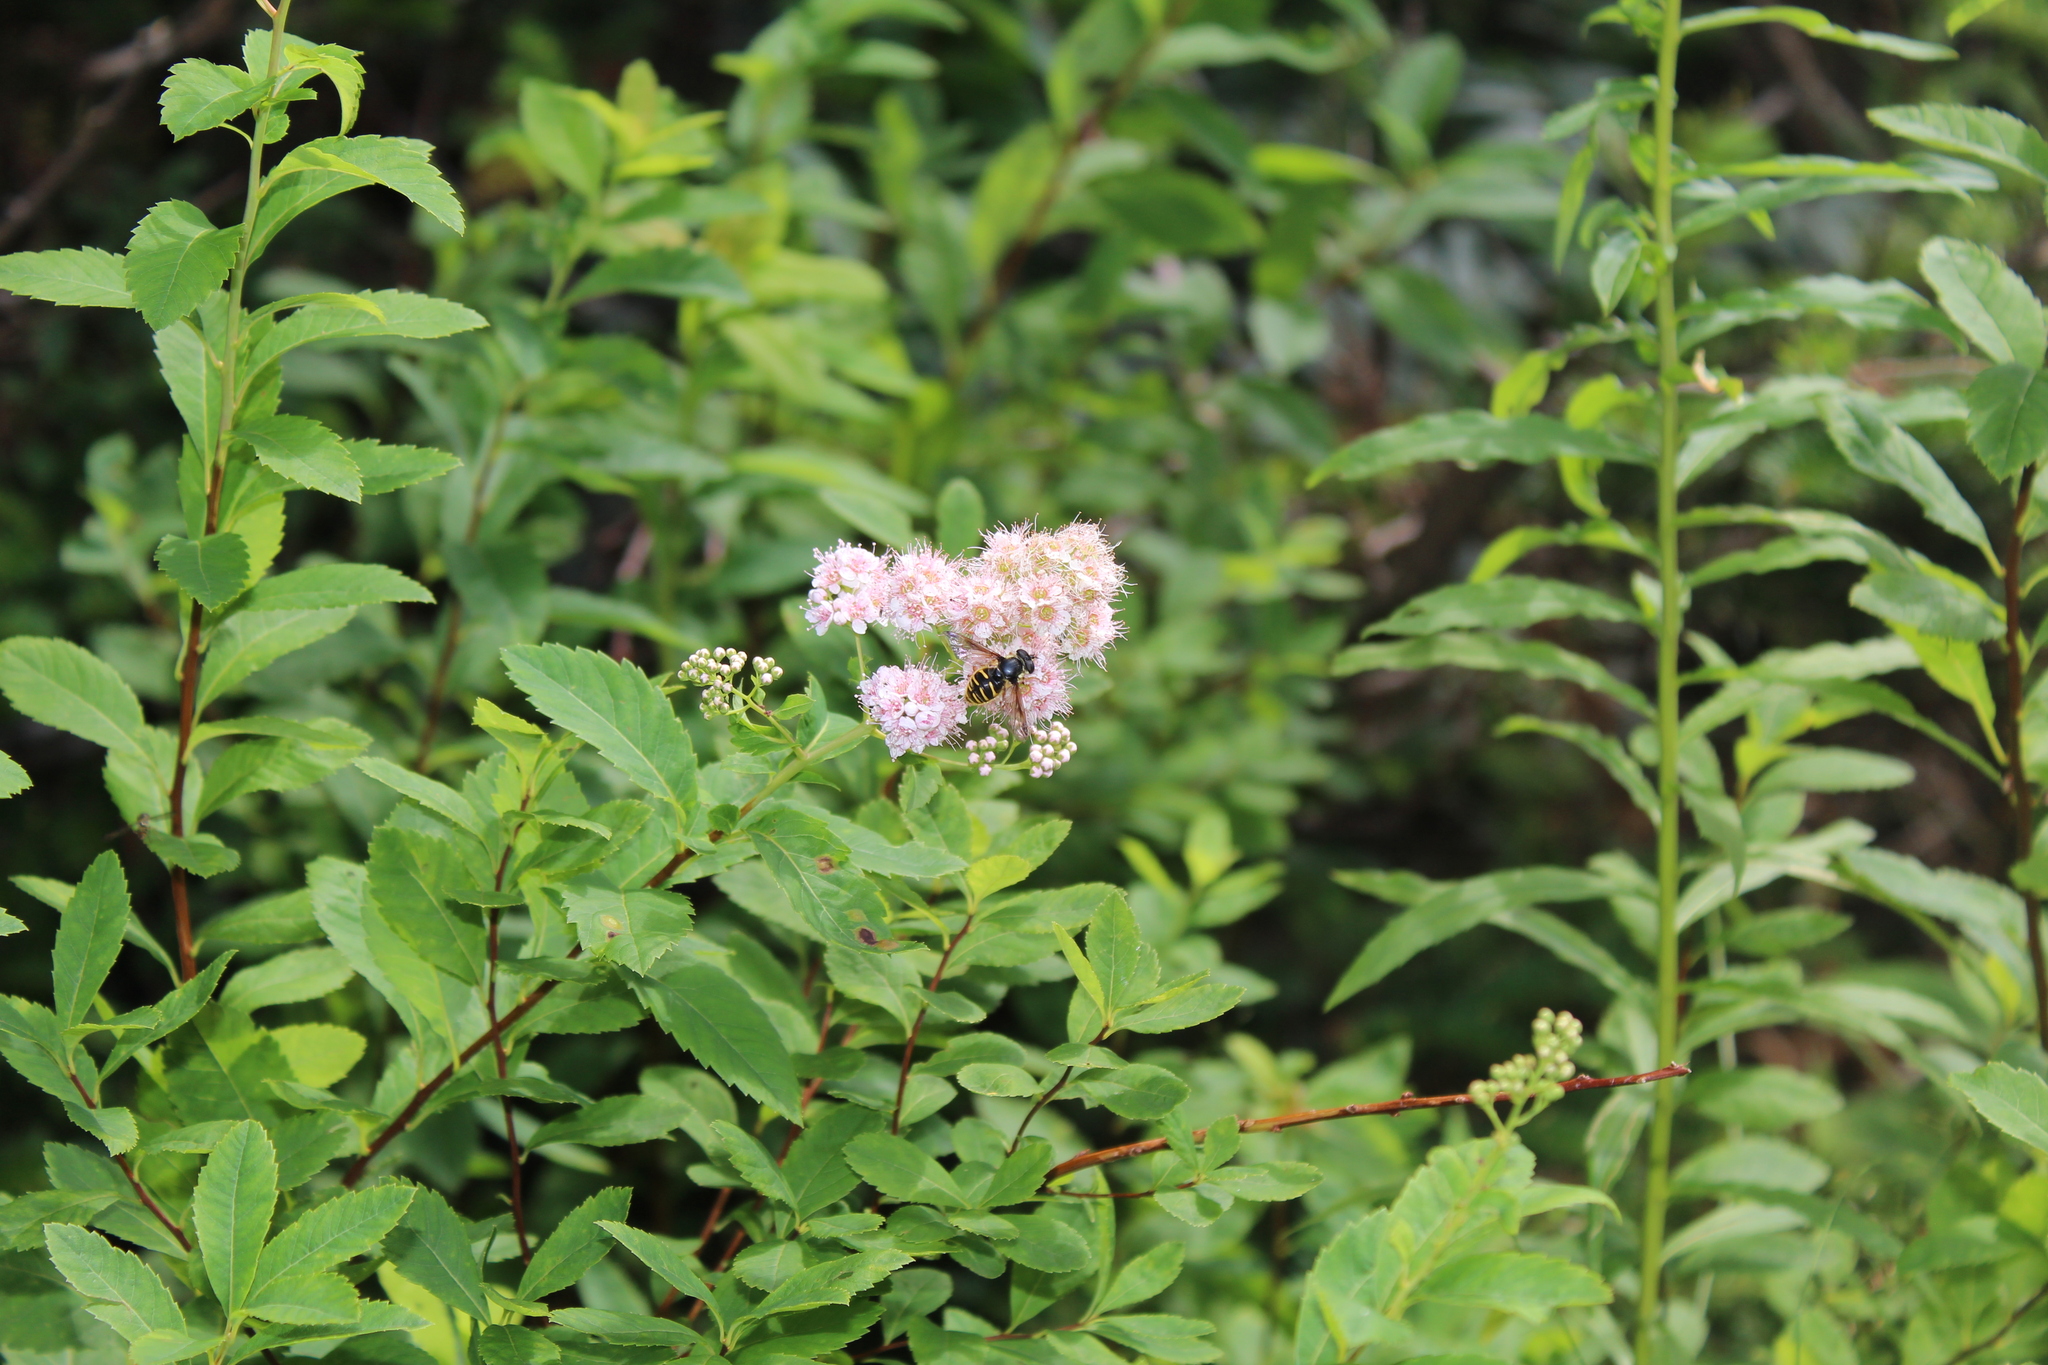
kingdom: Animalia
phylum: Arthropoda
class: Insecta
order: Diptera
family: Syrphidae
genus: Sericomyia
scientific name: Sericomyia chrysotoxoides
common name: Oblique-banded pond fly
